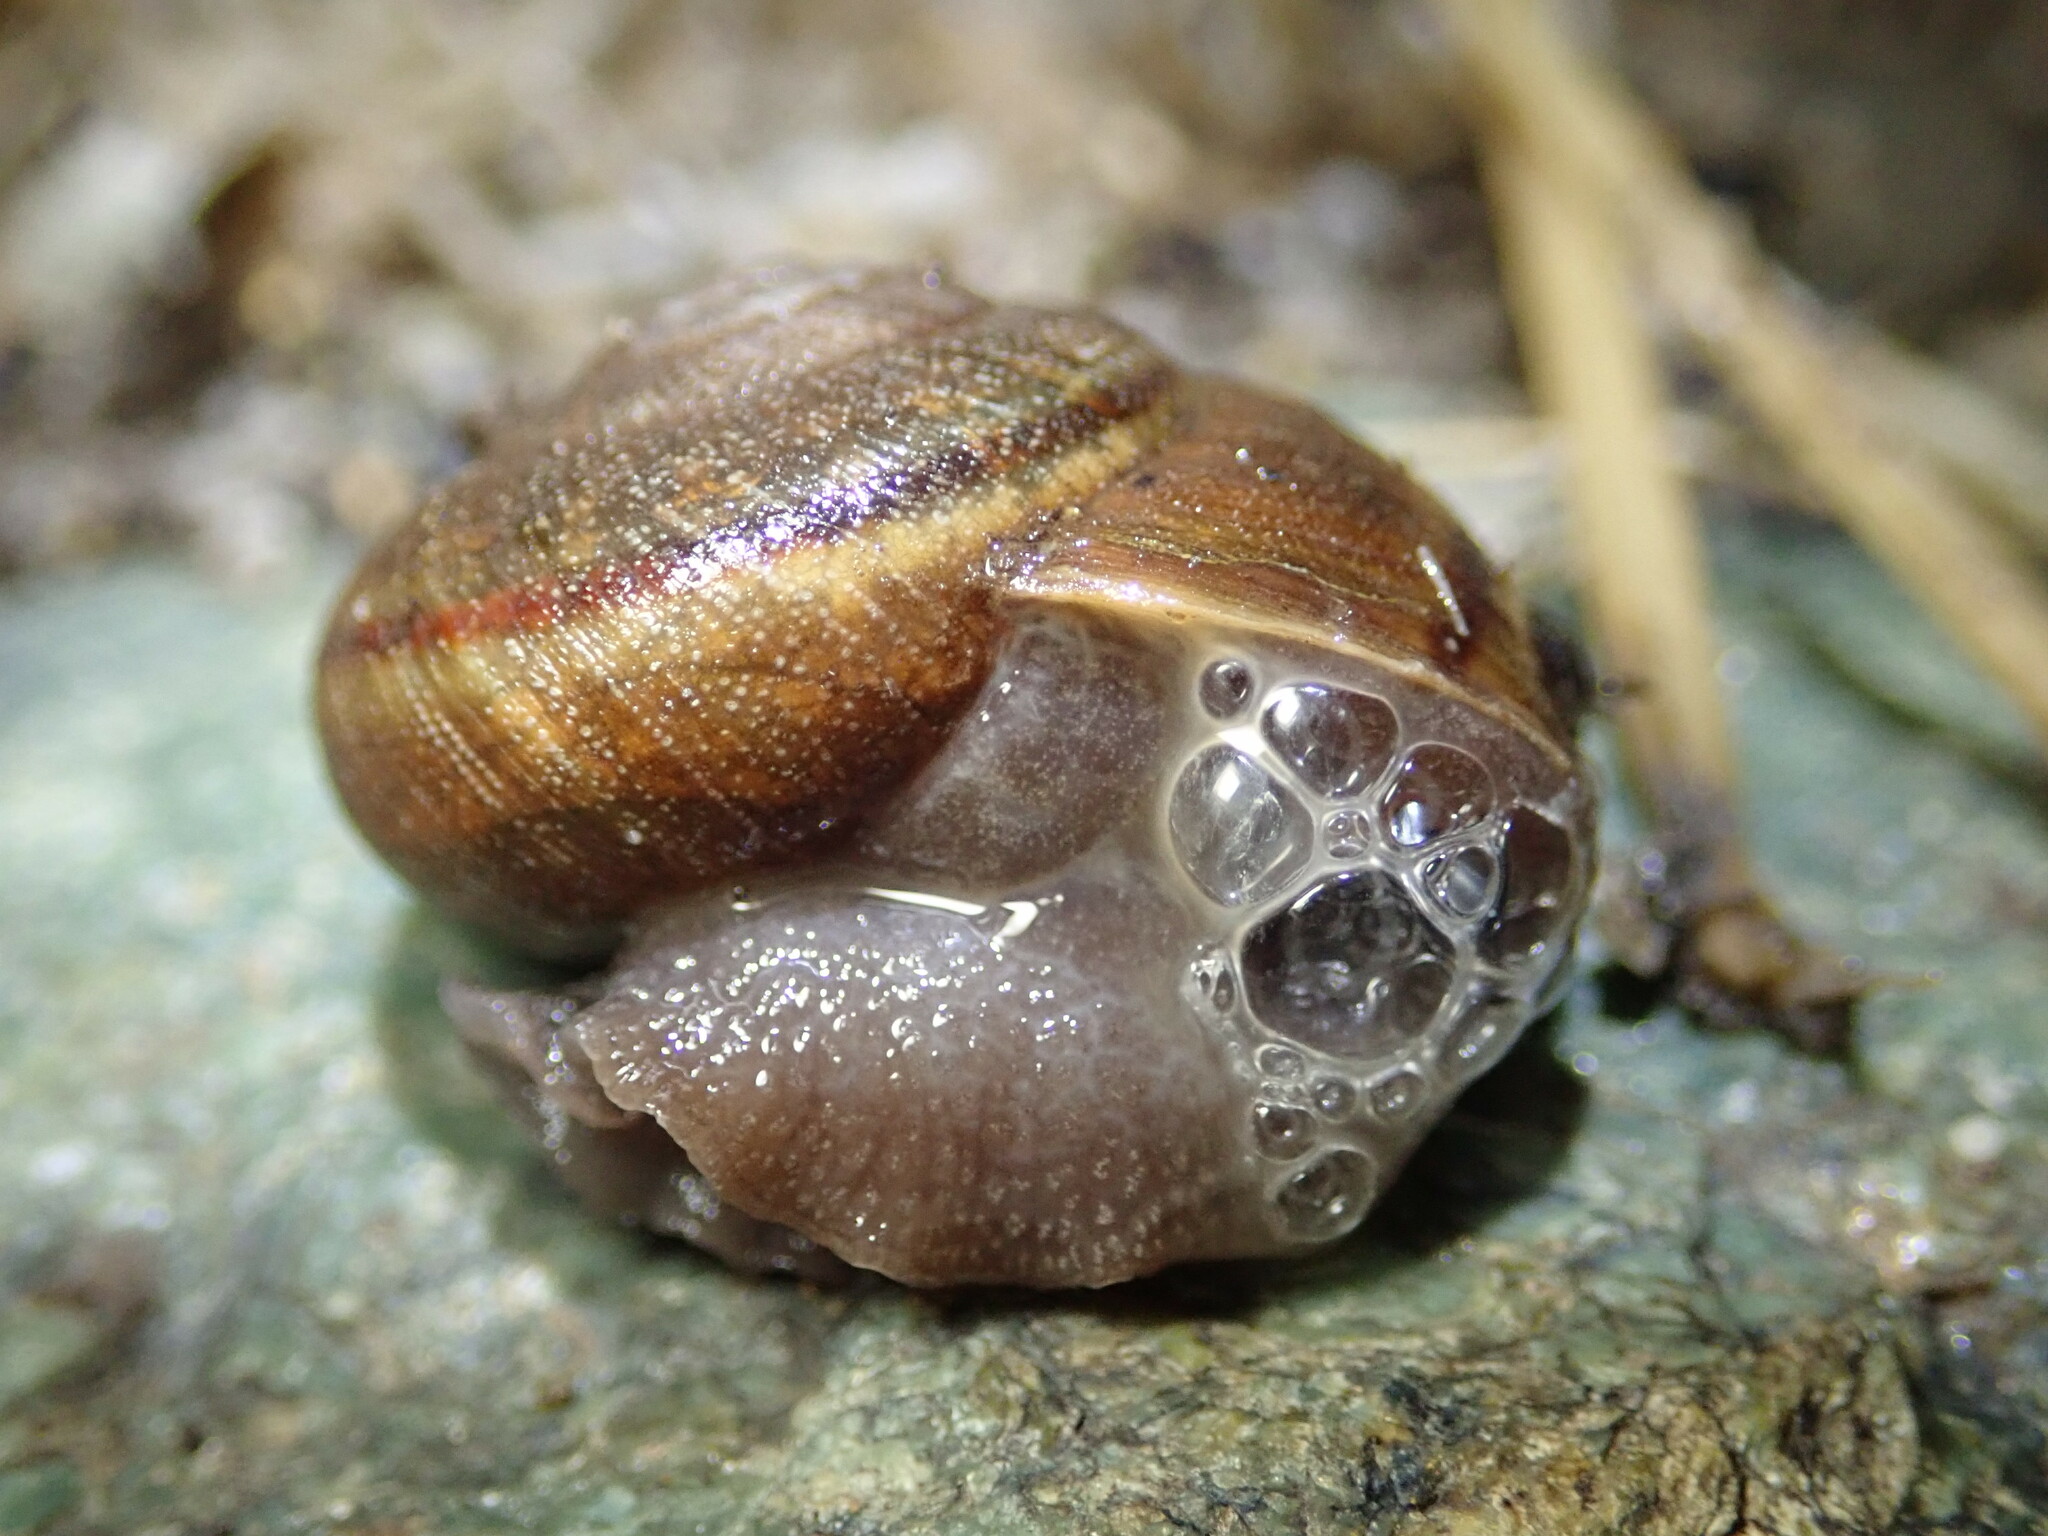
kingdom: Animalia
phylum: Mollusca
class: Gastropoda
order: Stylommatophora
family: Xanthonychidae
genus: Helminthoglypta
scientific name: Helminthoglypta morroensis
